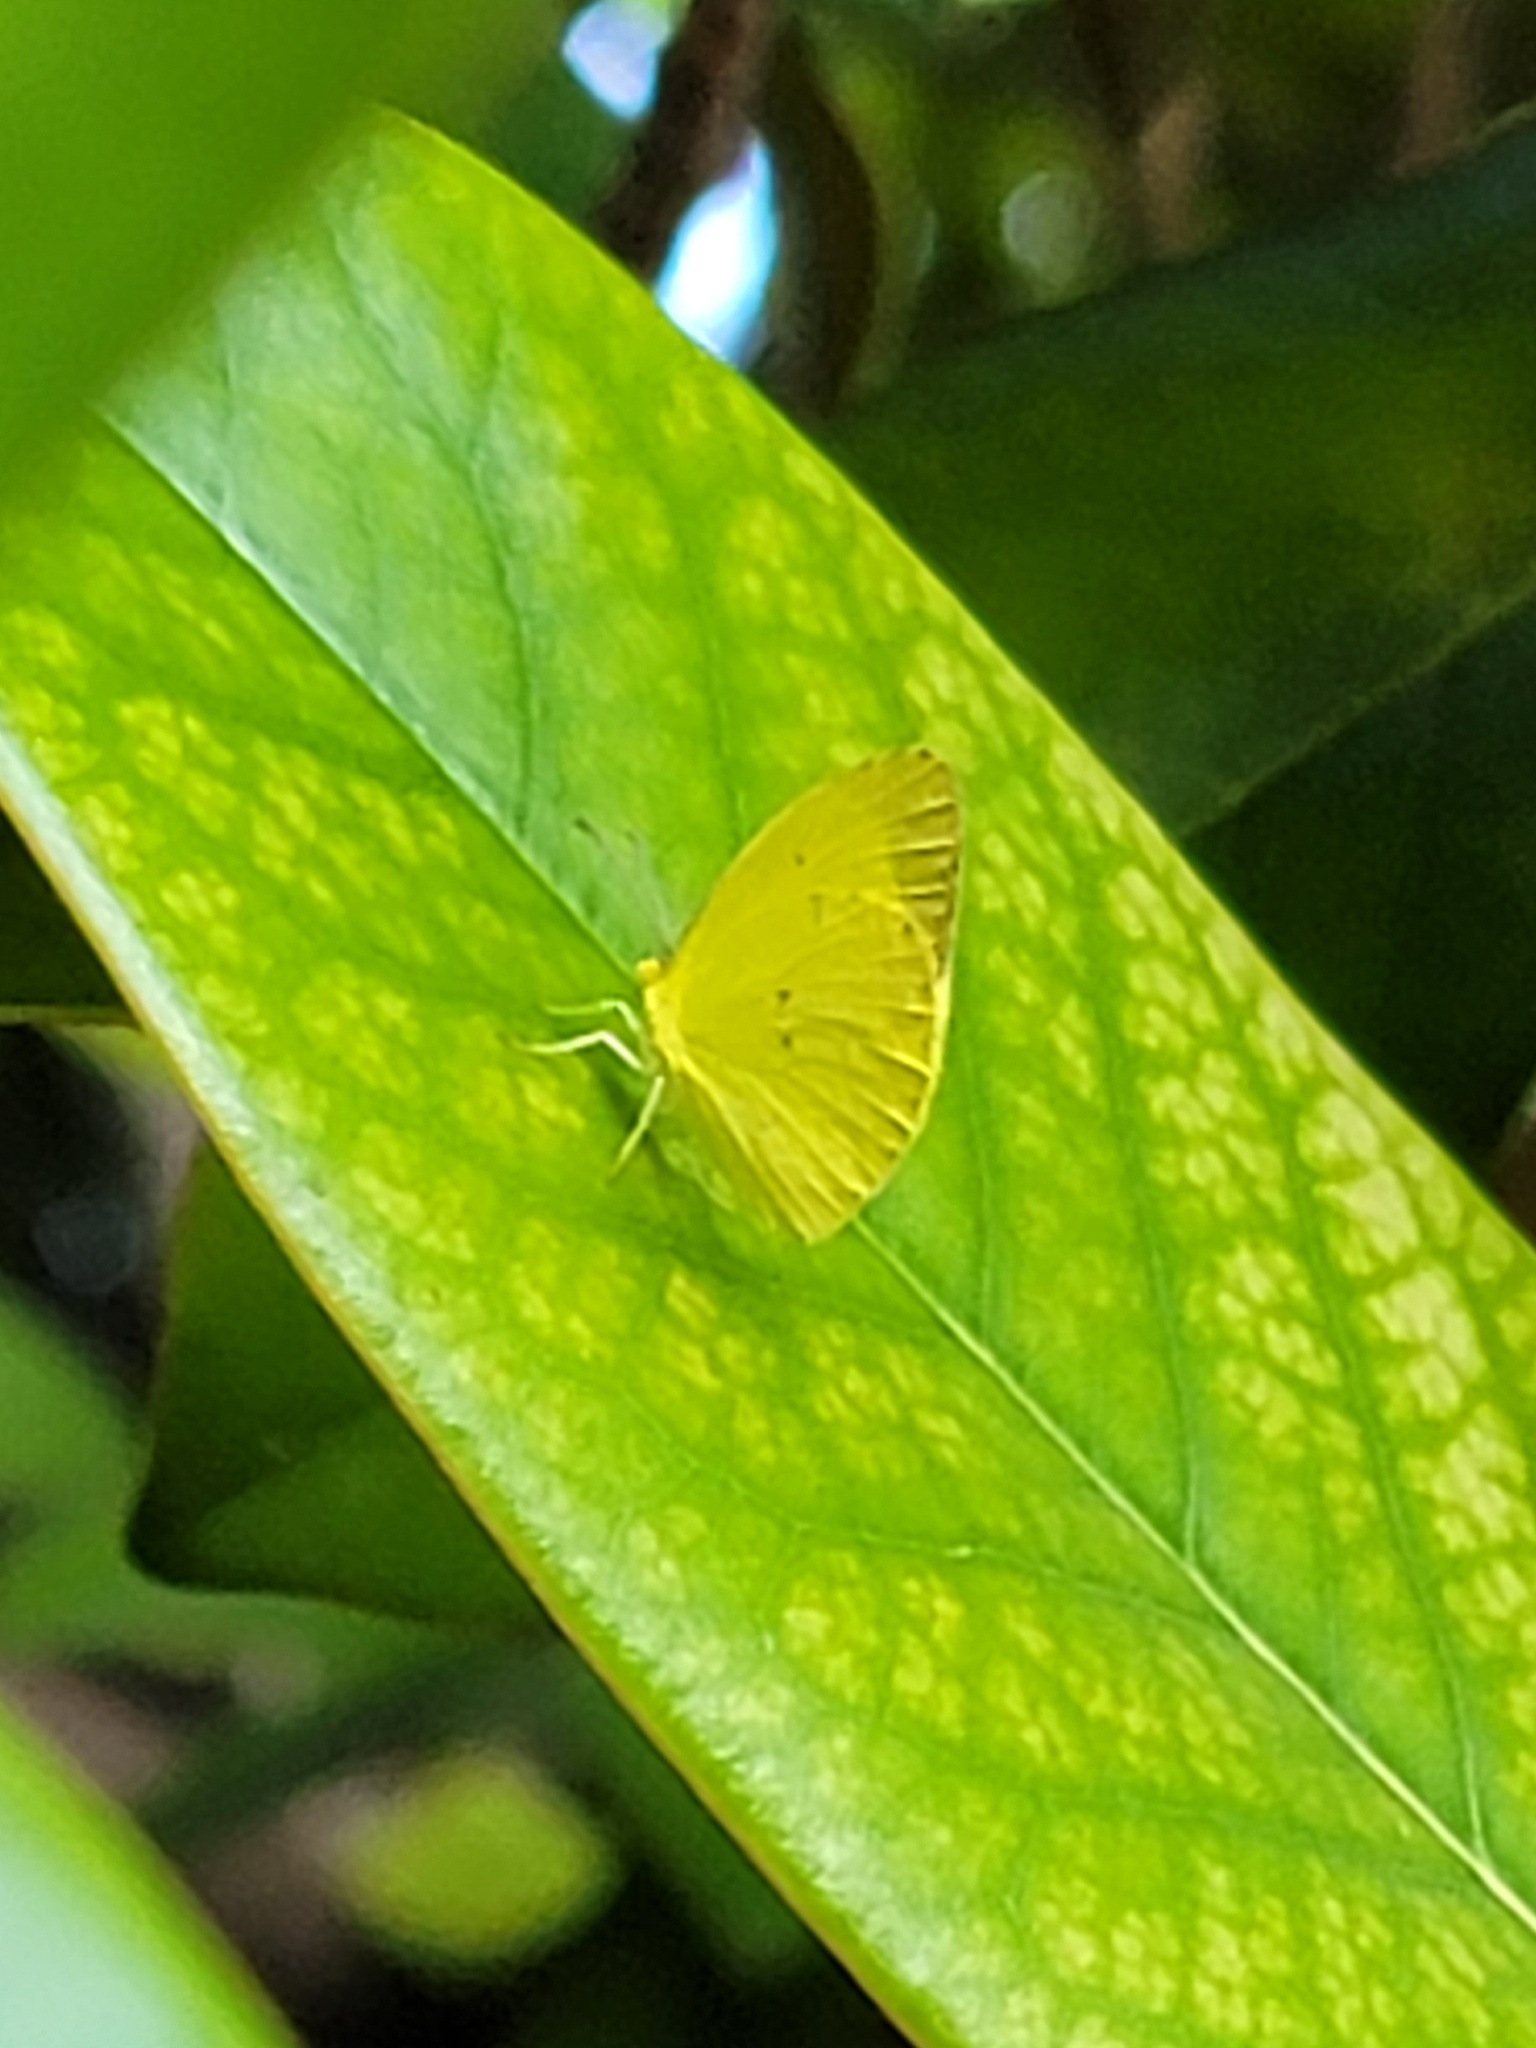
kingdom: Animalia
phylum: Arthropoda
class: Insecta
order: Lepidoptera
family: Pieridae
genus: Pyrisitia
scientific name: Pyrisitia nise
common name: Mimosa yellow
